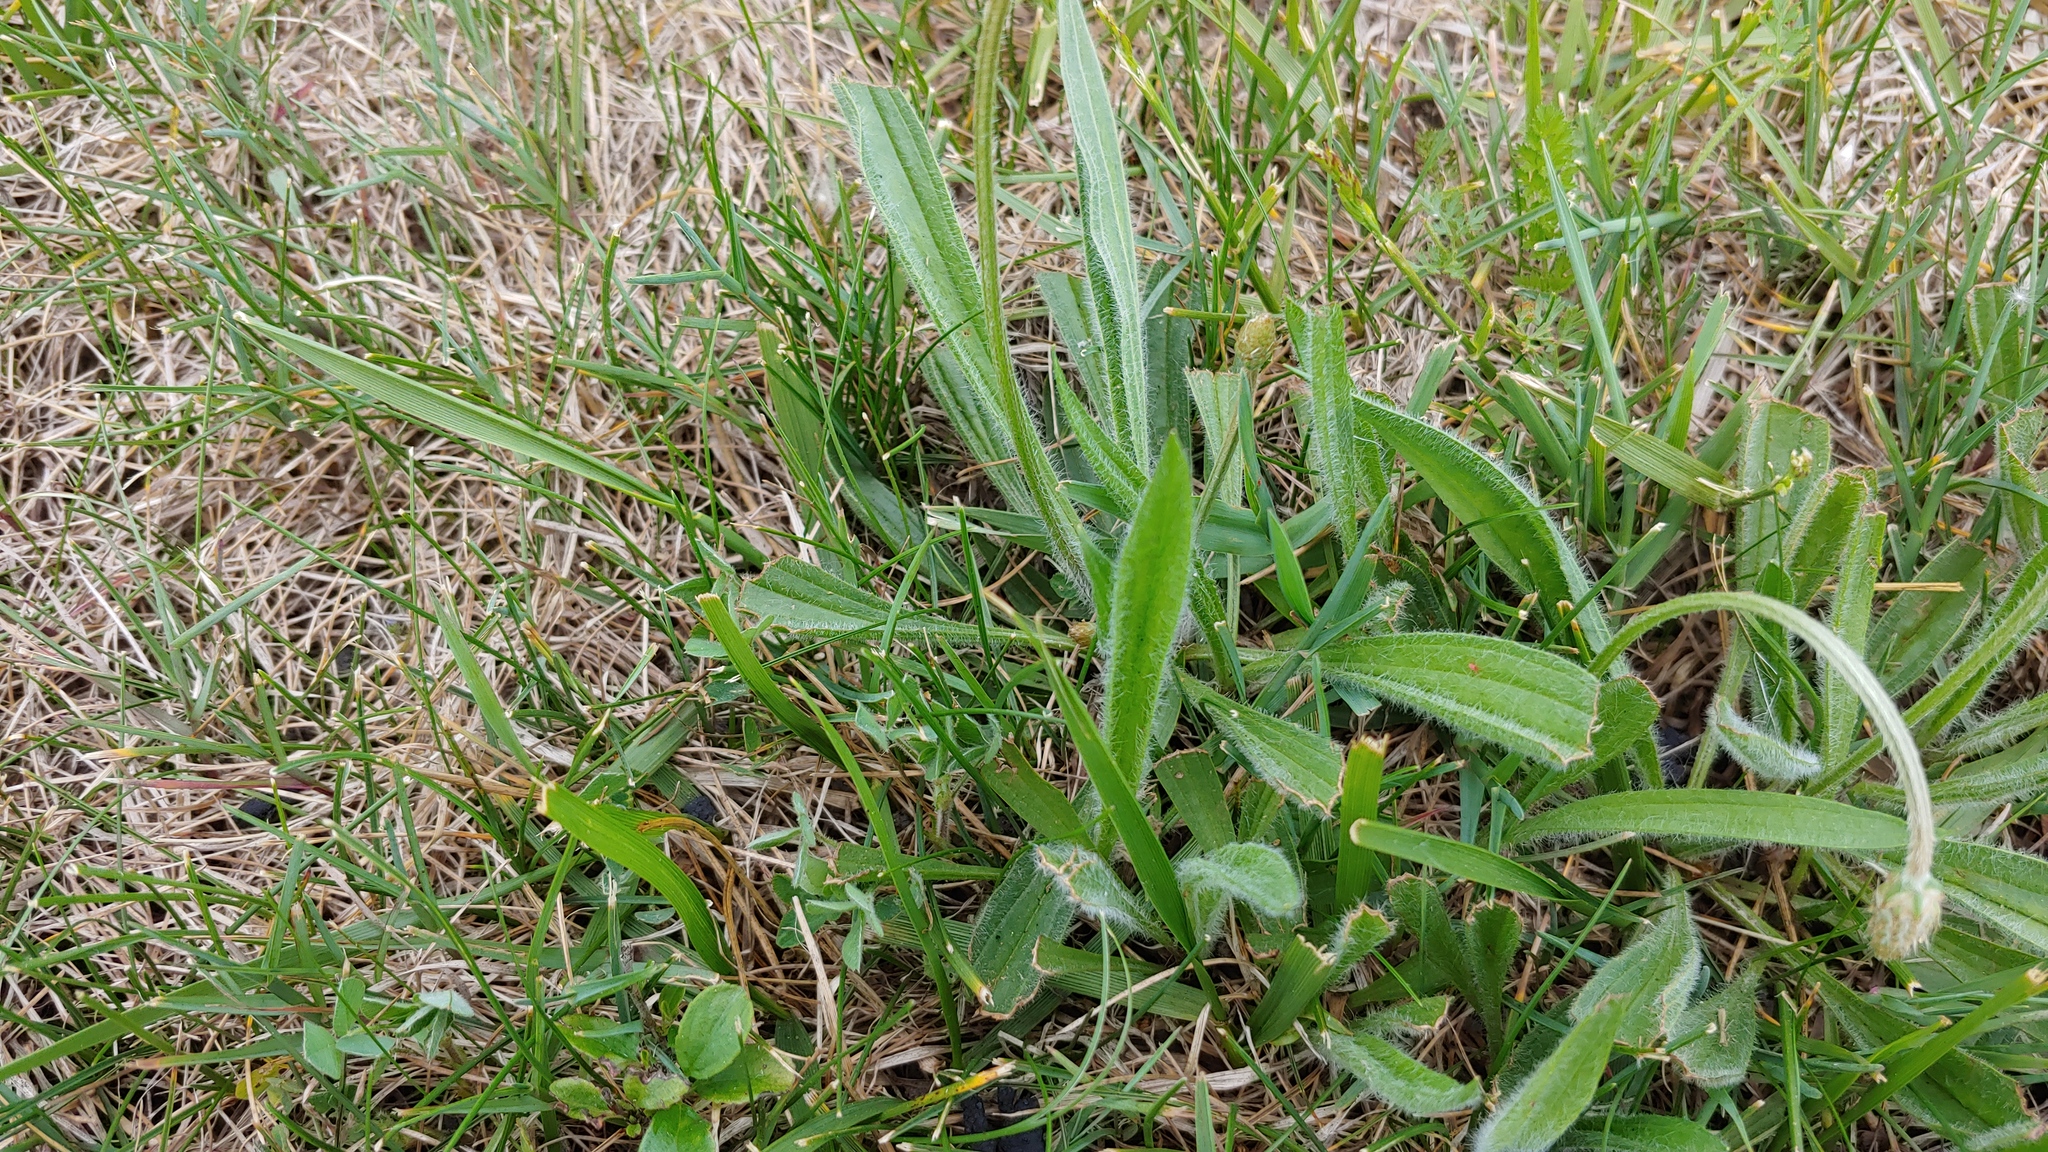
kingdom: Plantae
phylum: Tracheophyta
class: Magnoliopsida
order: Lamiales
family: Plantaginaceae
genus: Plantago
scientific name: Plantago lanceolata
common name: Ribwort plantain
